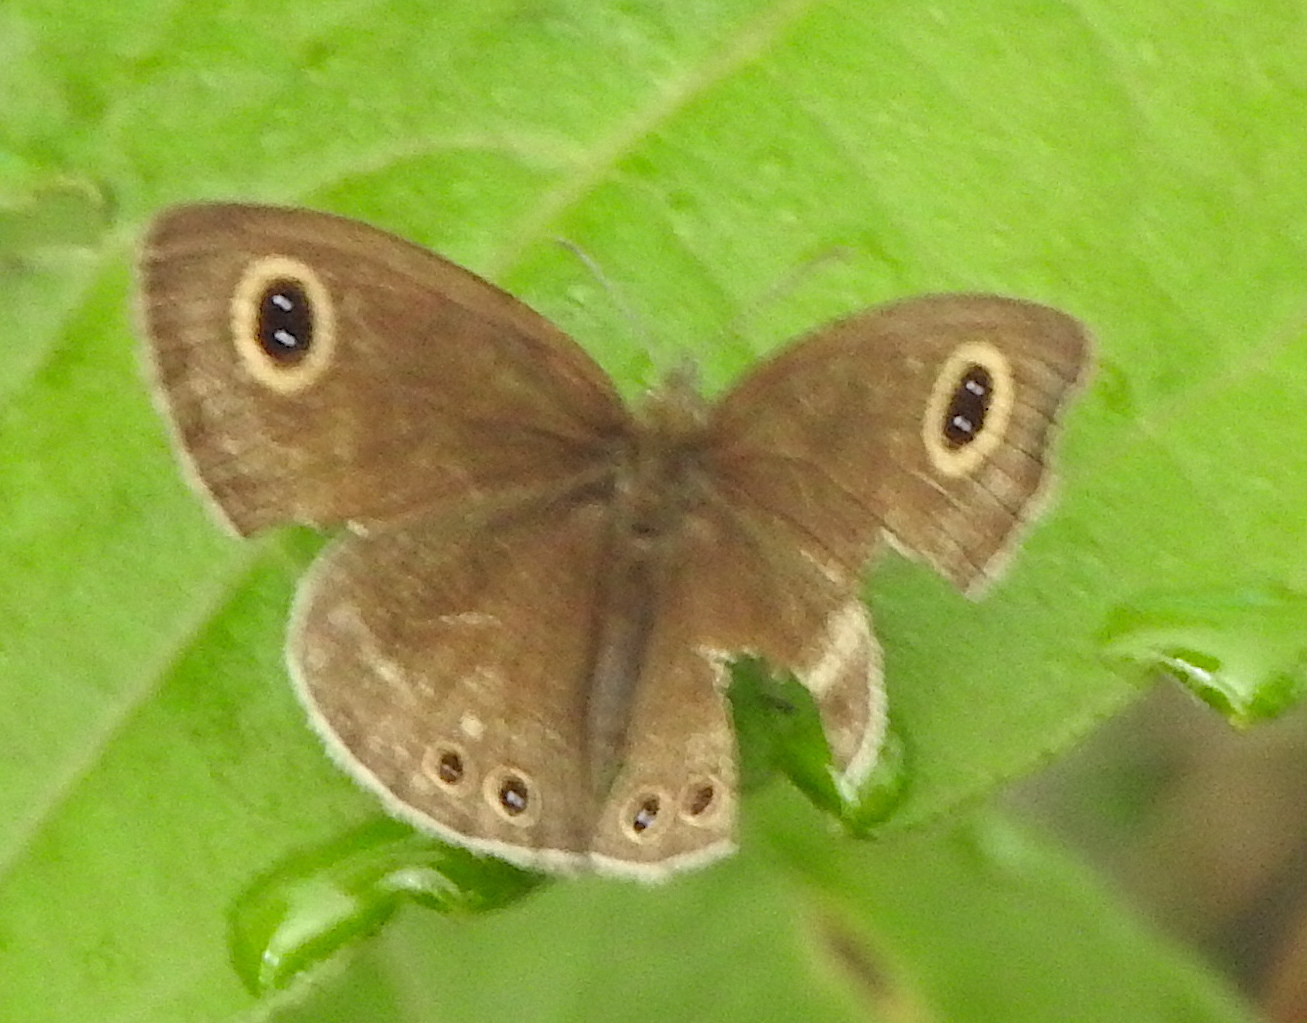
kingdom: Animalia
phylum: Arthropoda
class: Insecta
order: Lepidoptera
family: Nymphalidae
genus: Ypthima
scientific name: Ypthima huebneri
